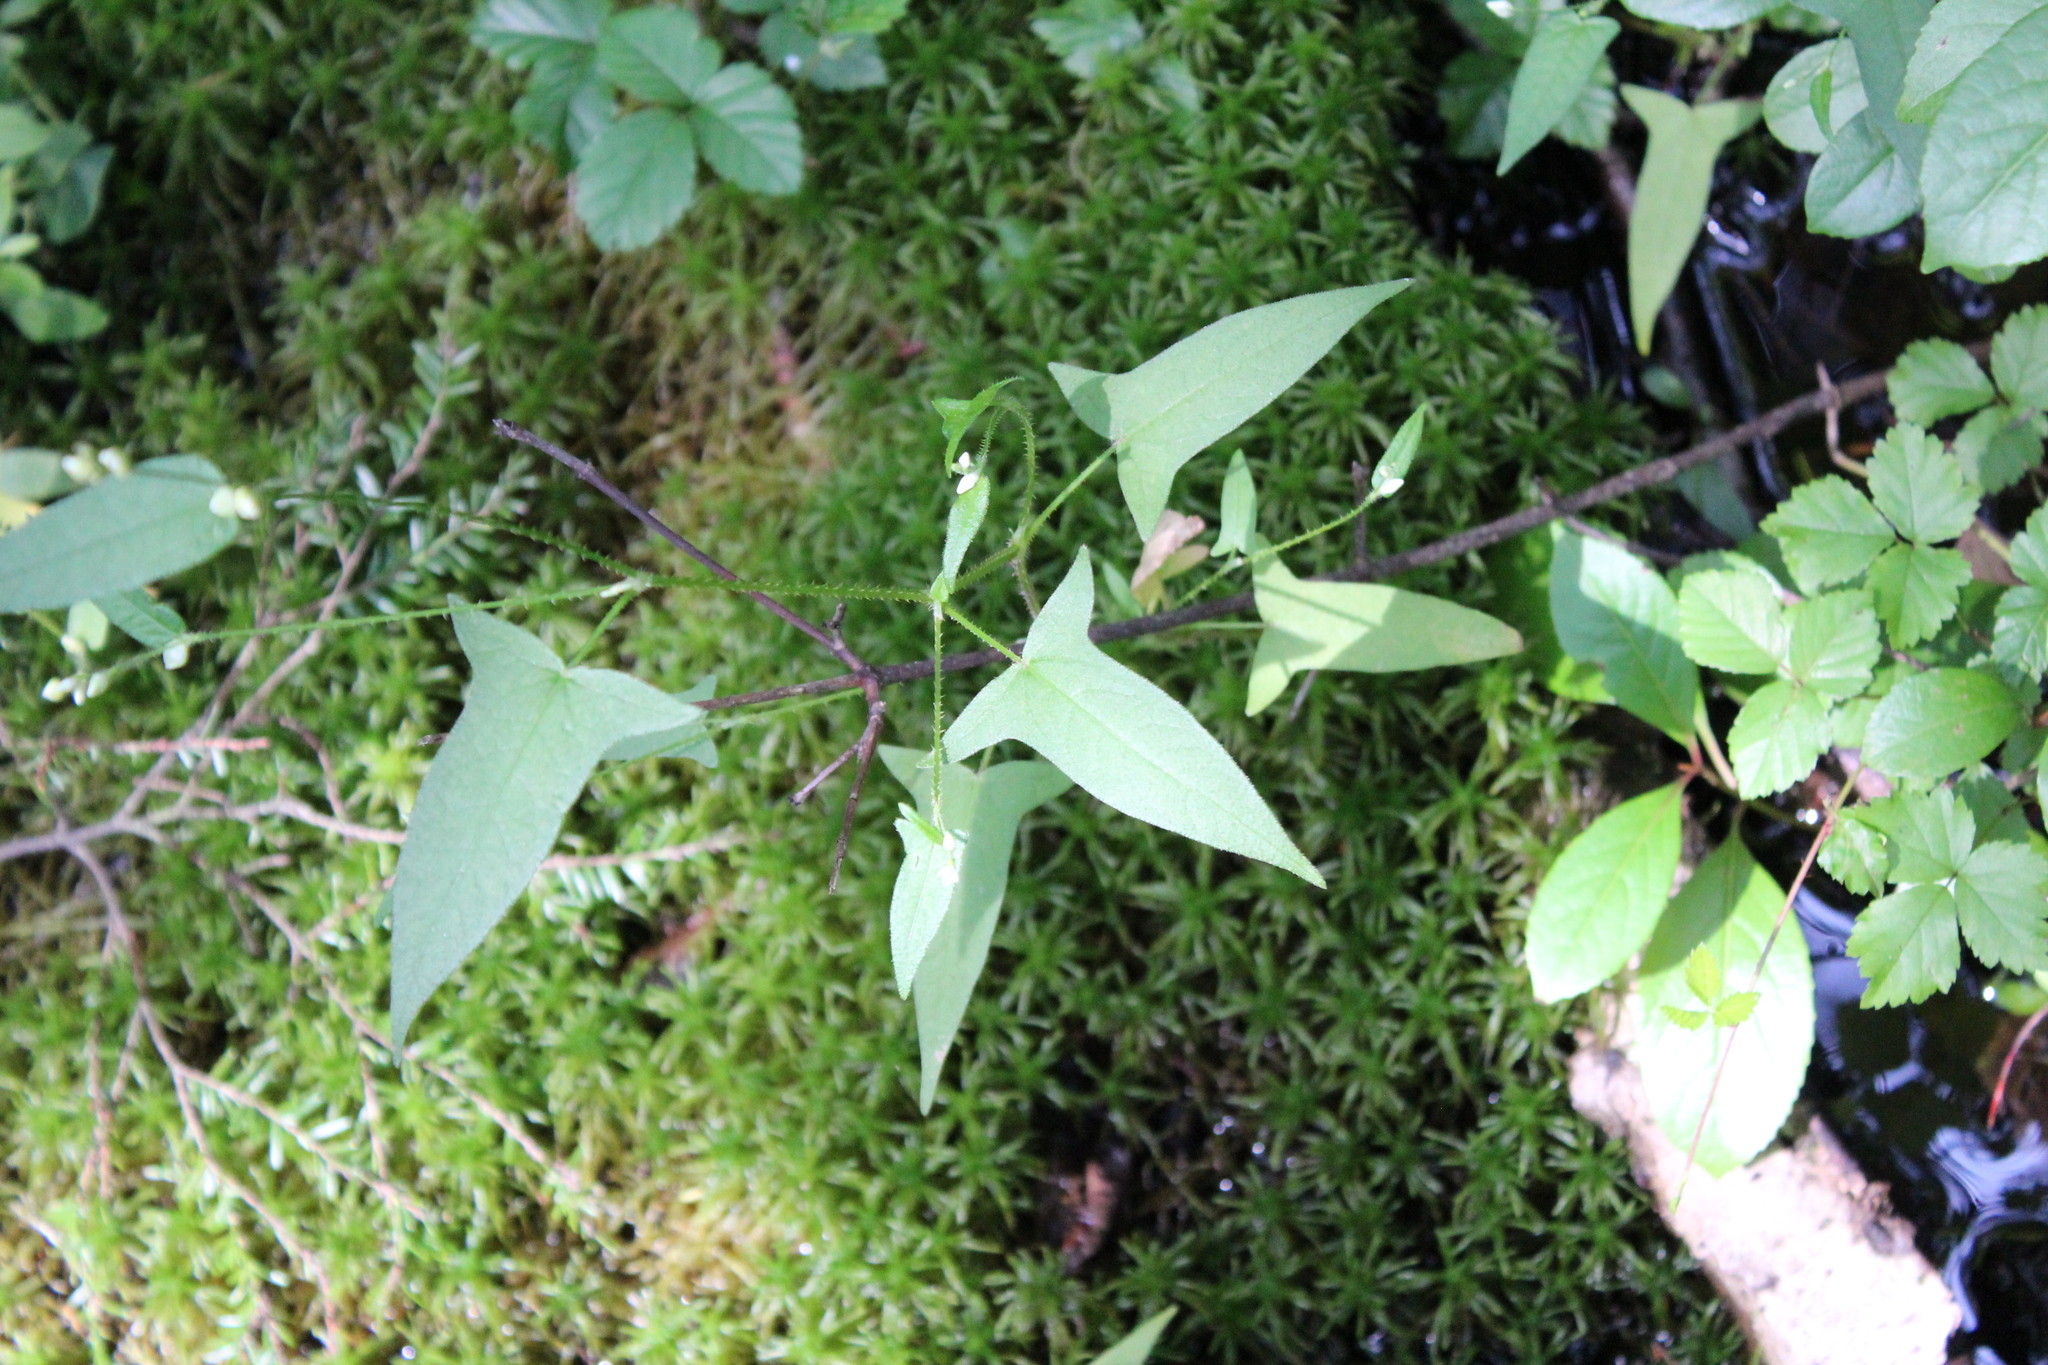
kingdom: Plantae
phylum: Tracheophyta
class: Magnoliopsida
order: Caryophyllales
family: Polygonaceae
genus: Persicaria
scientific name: Persicaria arifolia
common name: Halberd-leaved tear-thumb
